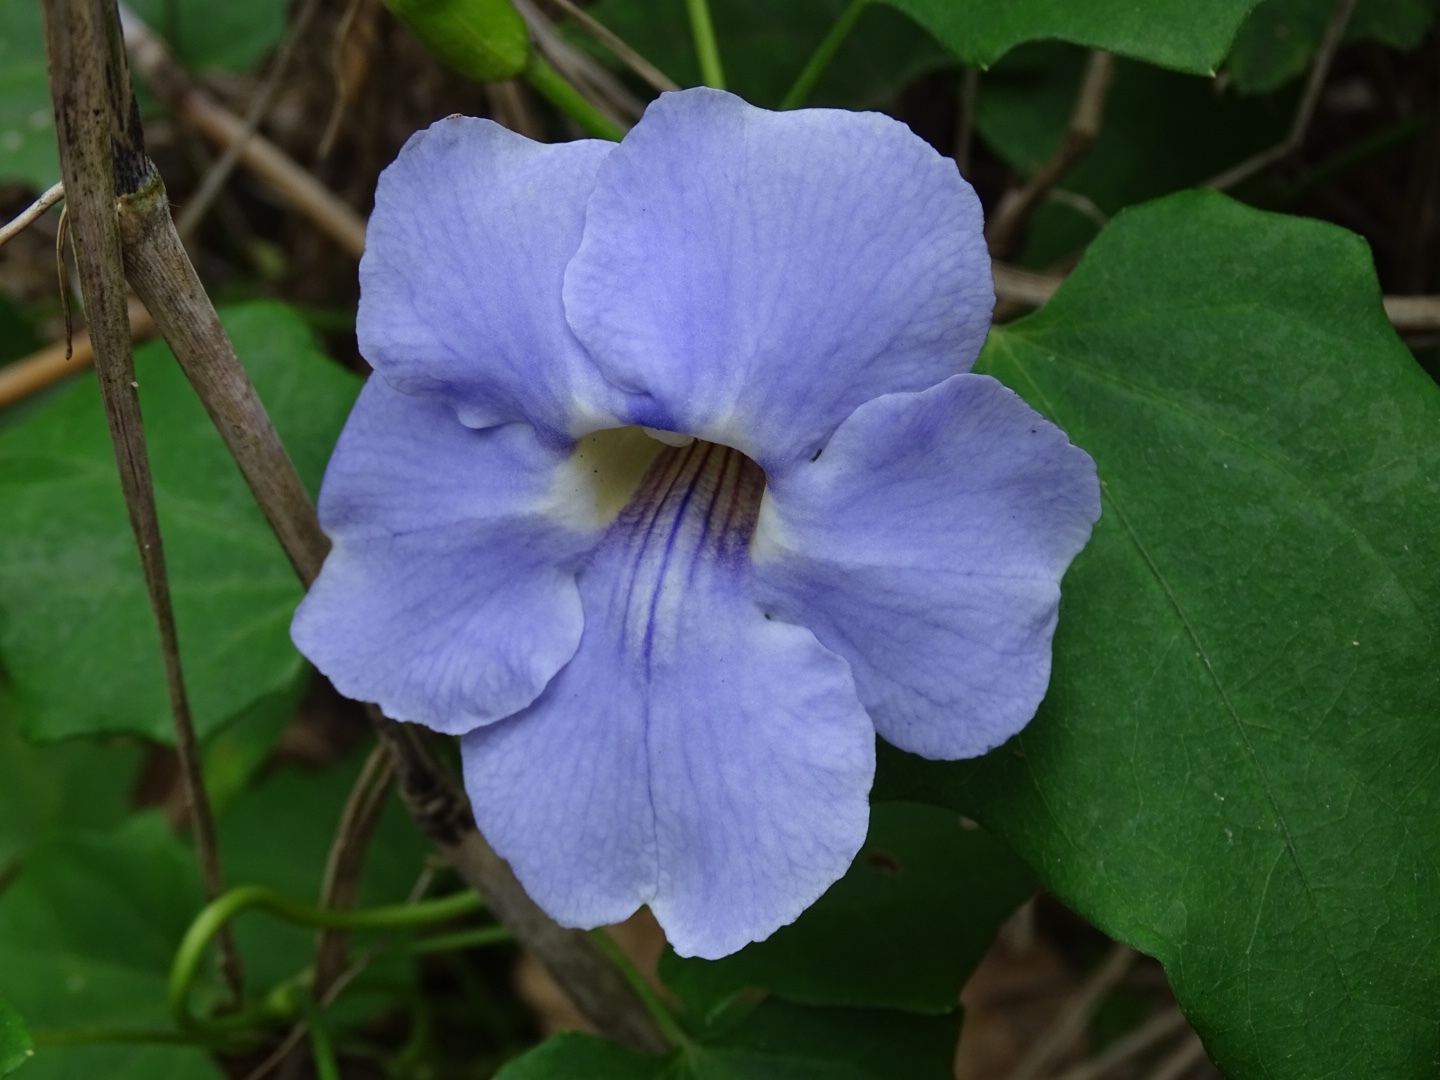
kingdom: Plantae
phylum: Tracheophyta
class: Magnoliopsida
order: Lamiales
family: Acanthaceae
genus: Thunbergia
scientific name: Thunbergia grandiflora
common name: Bengal trumpet
